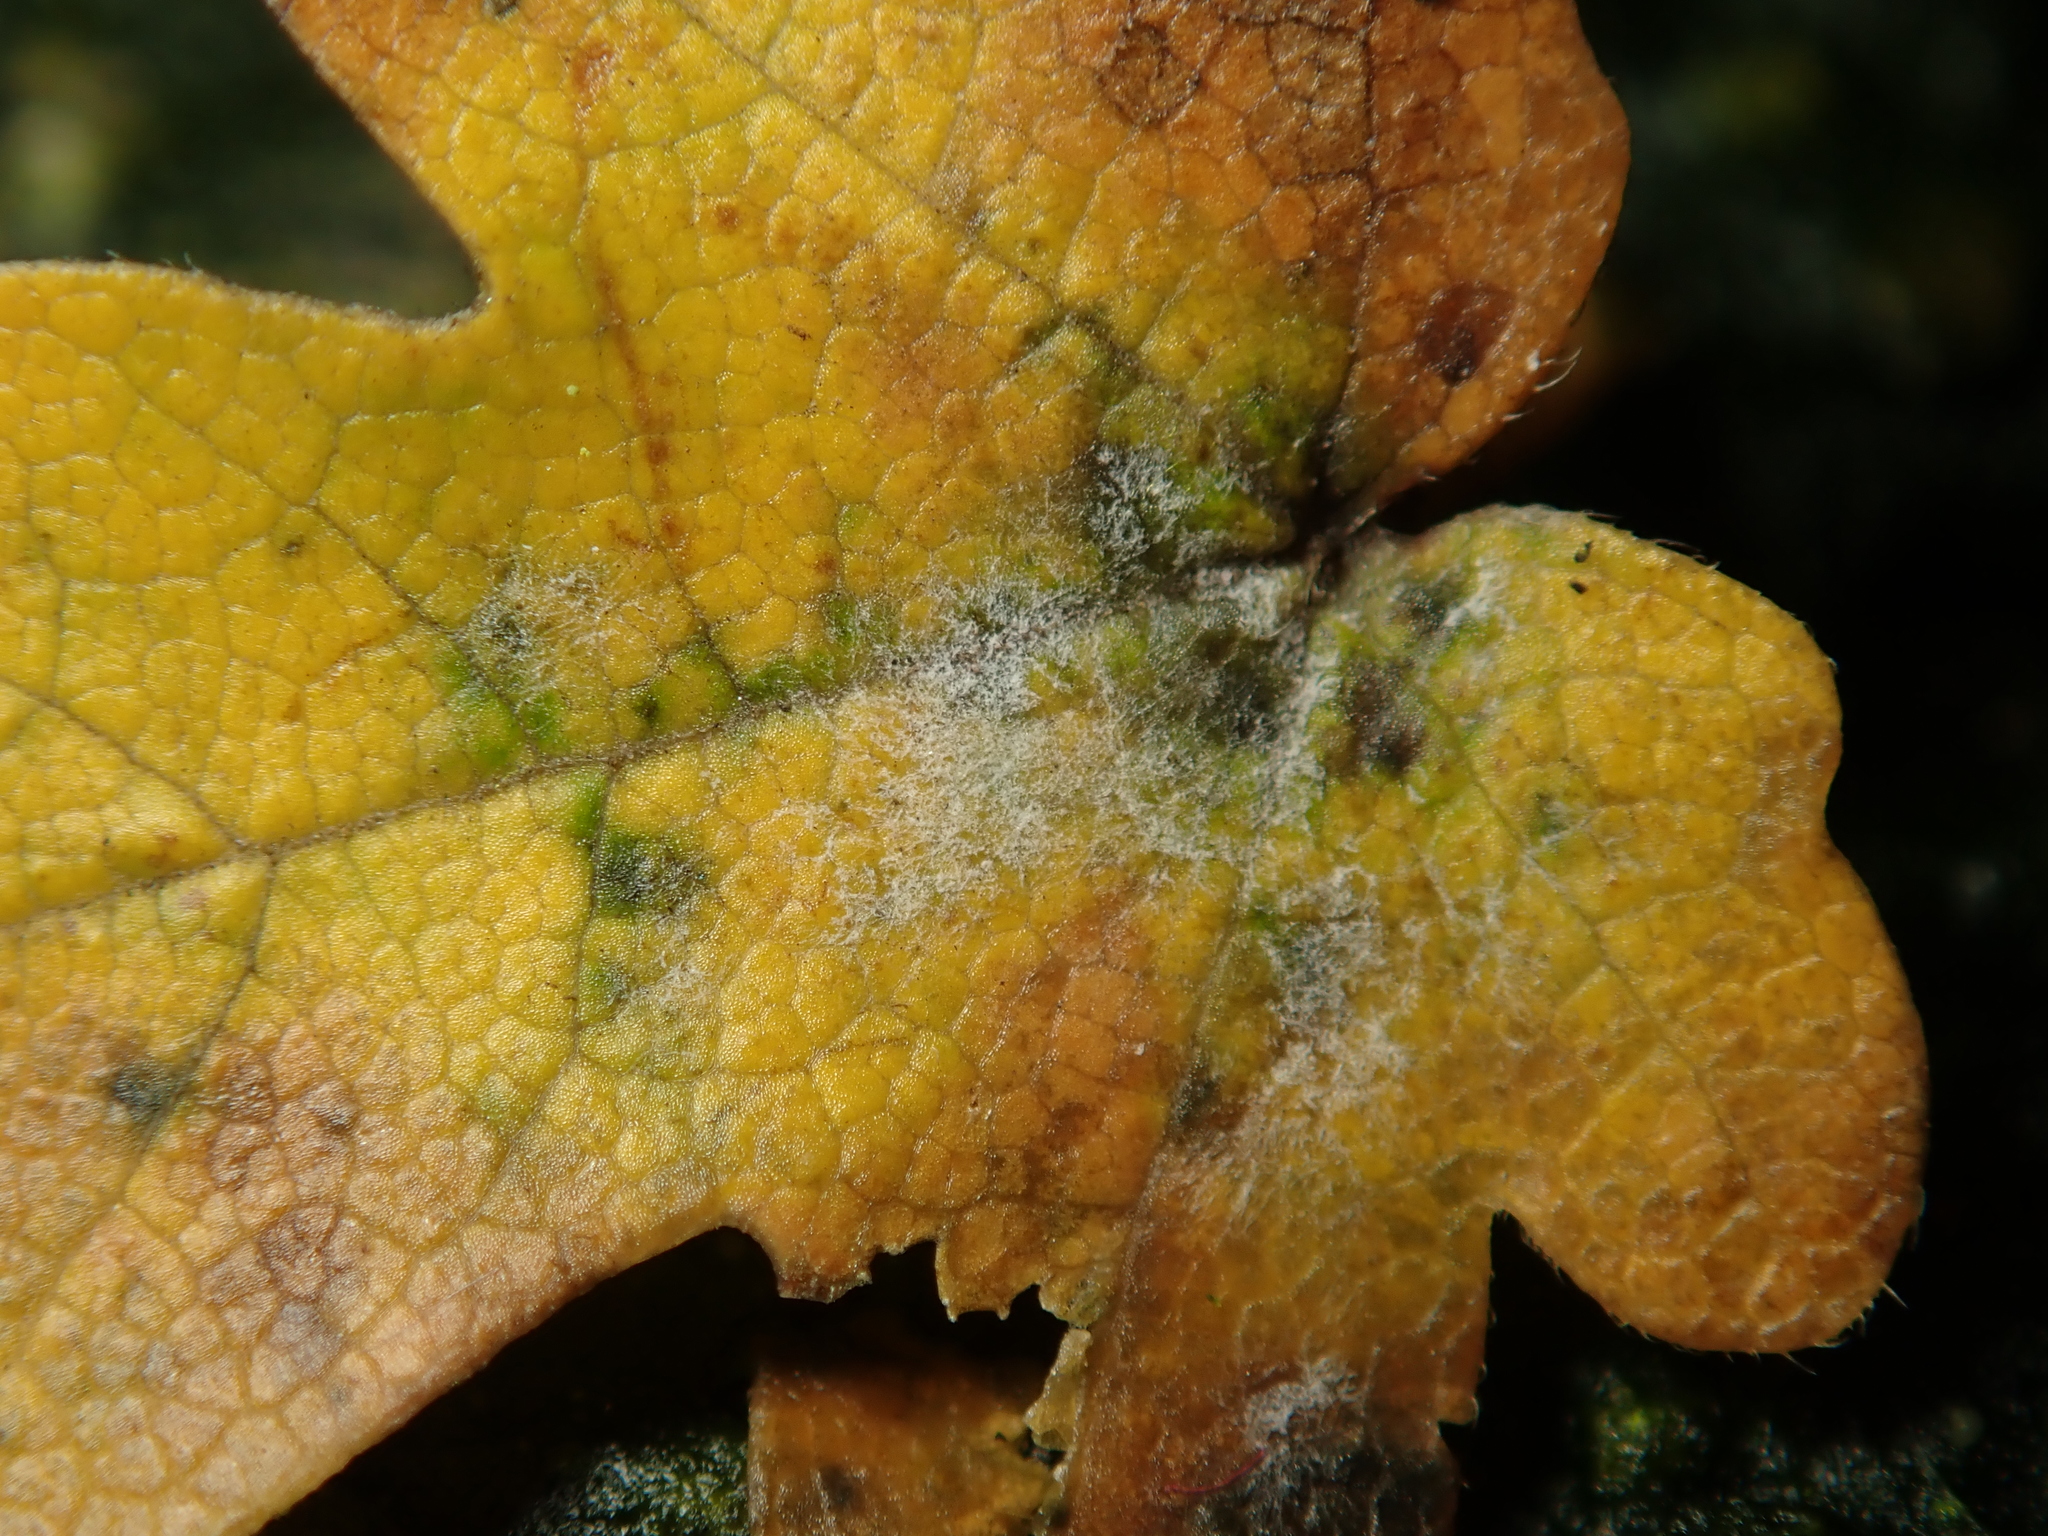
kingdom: Fungi
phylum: Ascomycota
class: Leotiomycetes
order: Helotiales
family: Erysiphaceae
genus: Sawadaea
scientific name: Sawadaea bicornis
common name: Maple mildew
